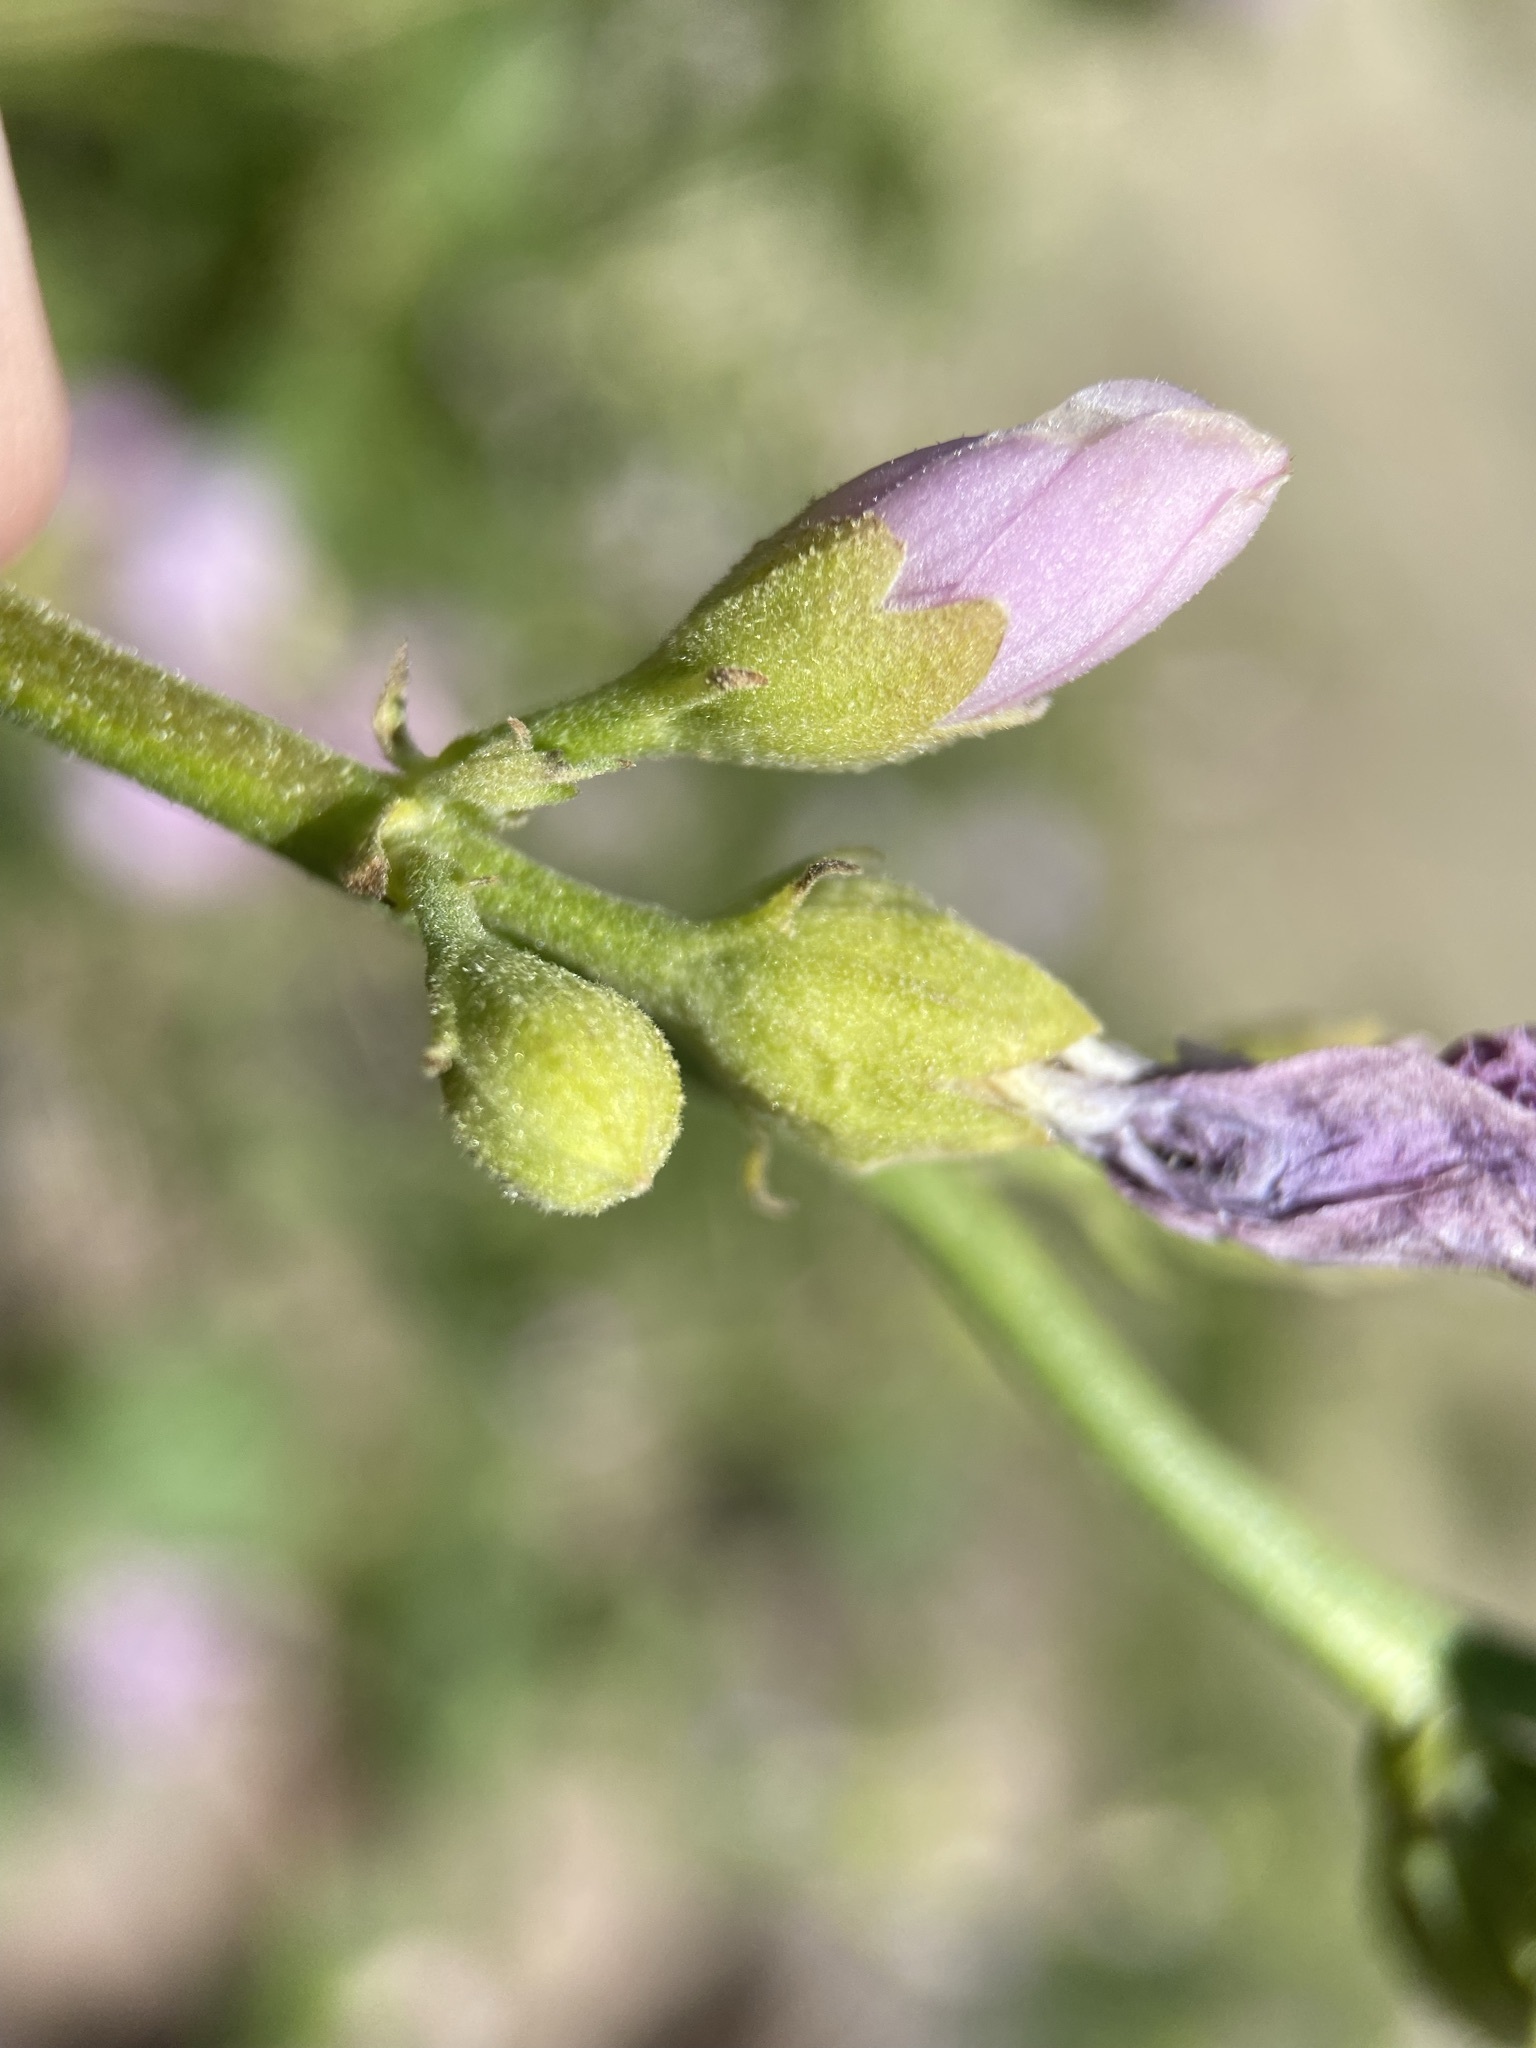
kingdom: Plantae
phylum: Tracheophyta
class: Magnoliopsida
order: Malvales
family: Malvaceae
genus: Iliamna
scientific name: Iliamna rivularis
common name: Wild hollyhock
